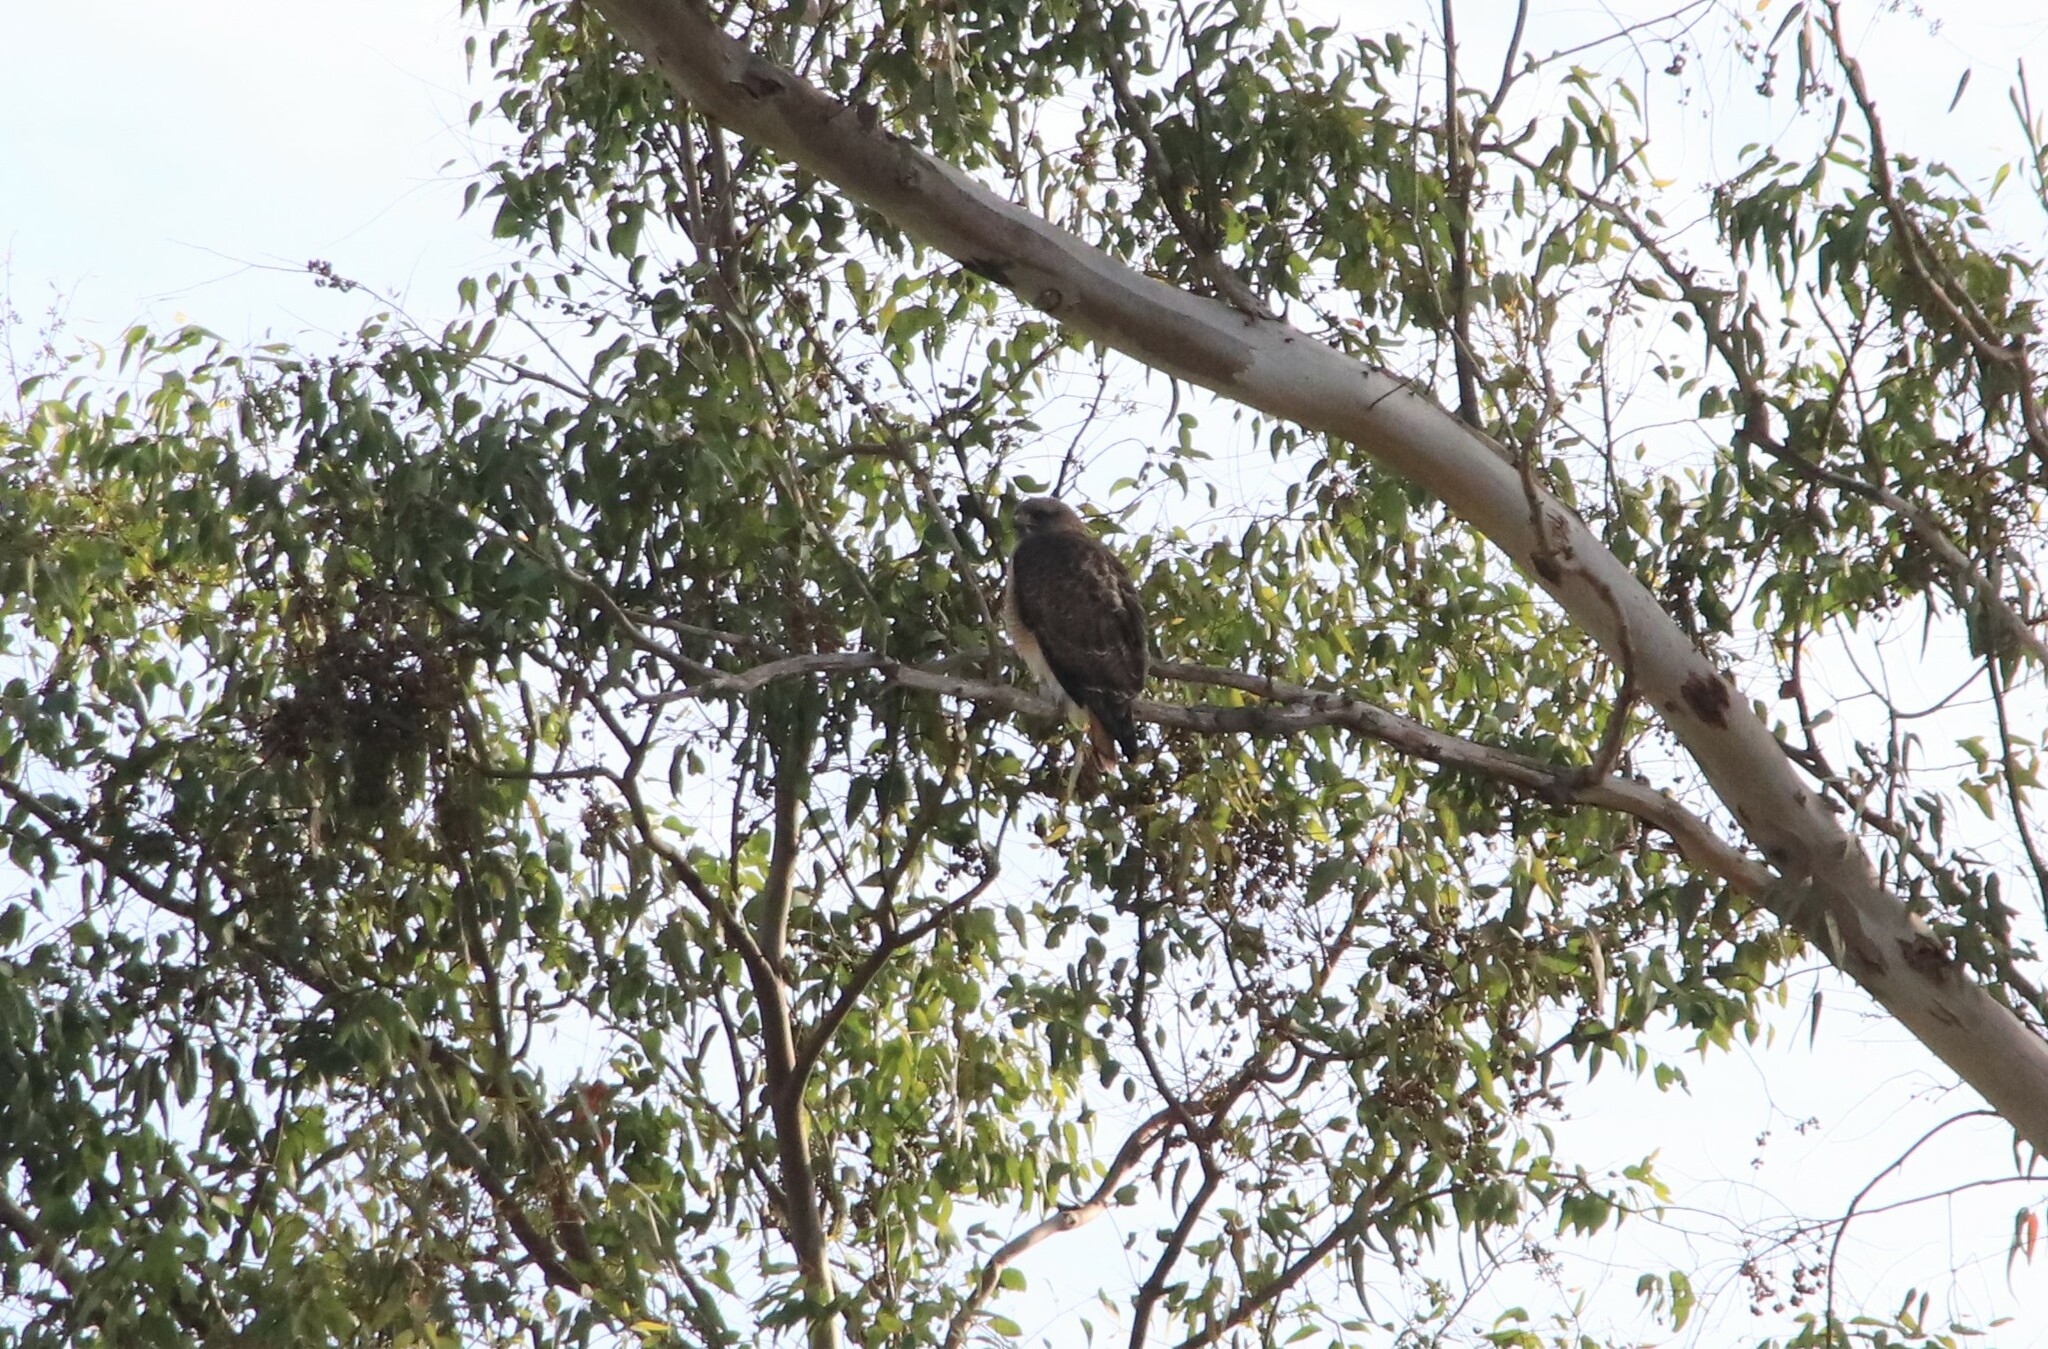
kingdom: Animalia
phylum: Chordata
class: Aves
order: Accipitriformes
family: Accipitridae
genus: Buteo
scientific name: Buteo jamaicensis
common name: Red-tailed hawk
